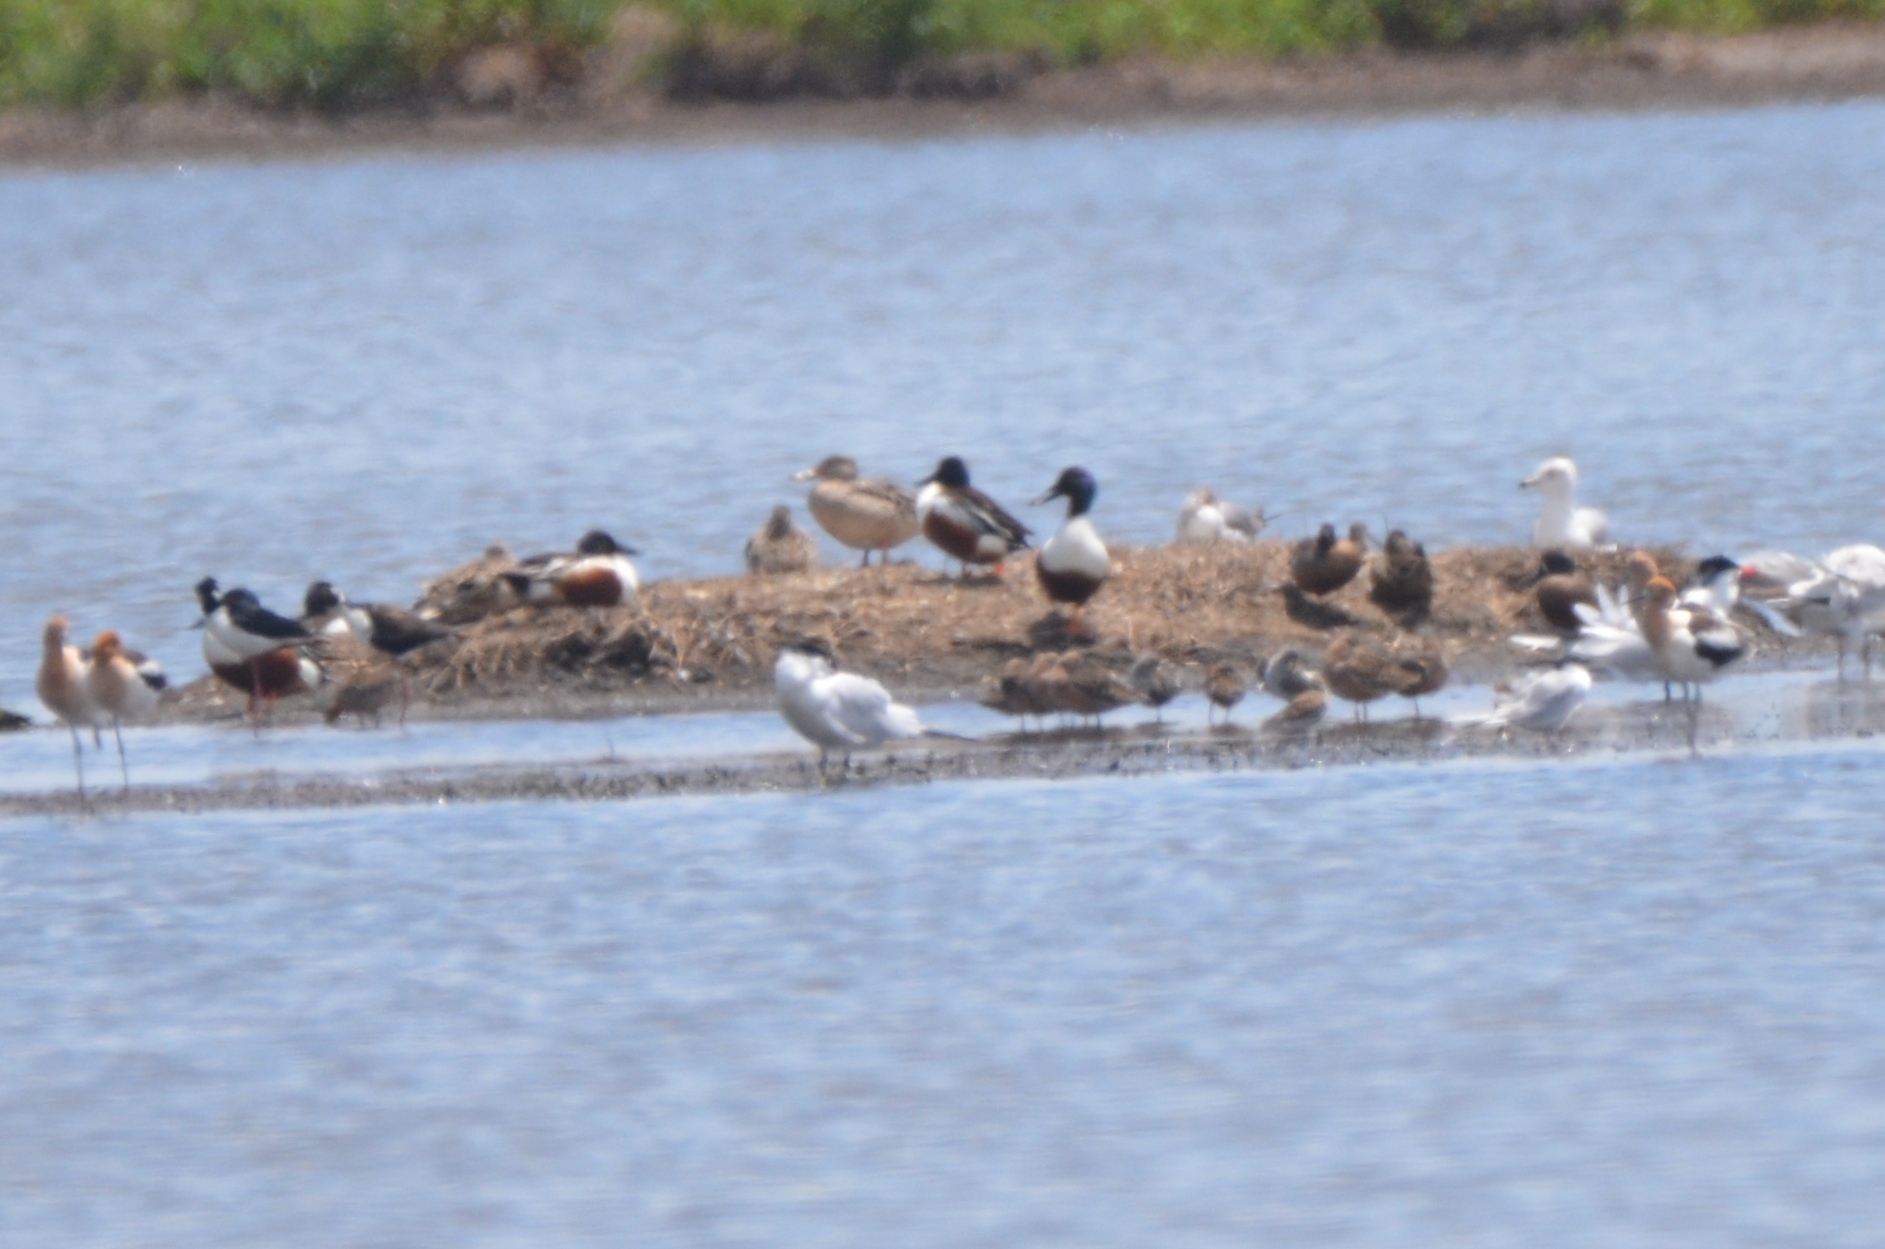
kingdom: Animalia
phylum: Chordata
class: Aves
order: Anseriformes
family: Anatidae
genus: Spatula
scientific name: Spatula clypeata
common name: Northern shoveler
